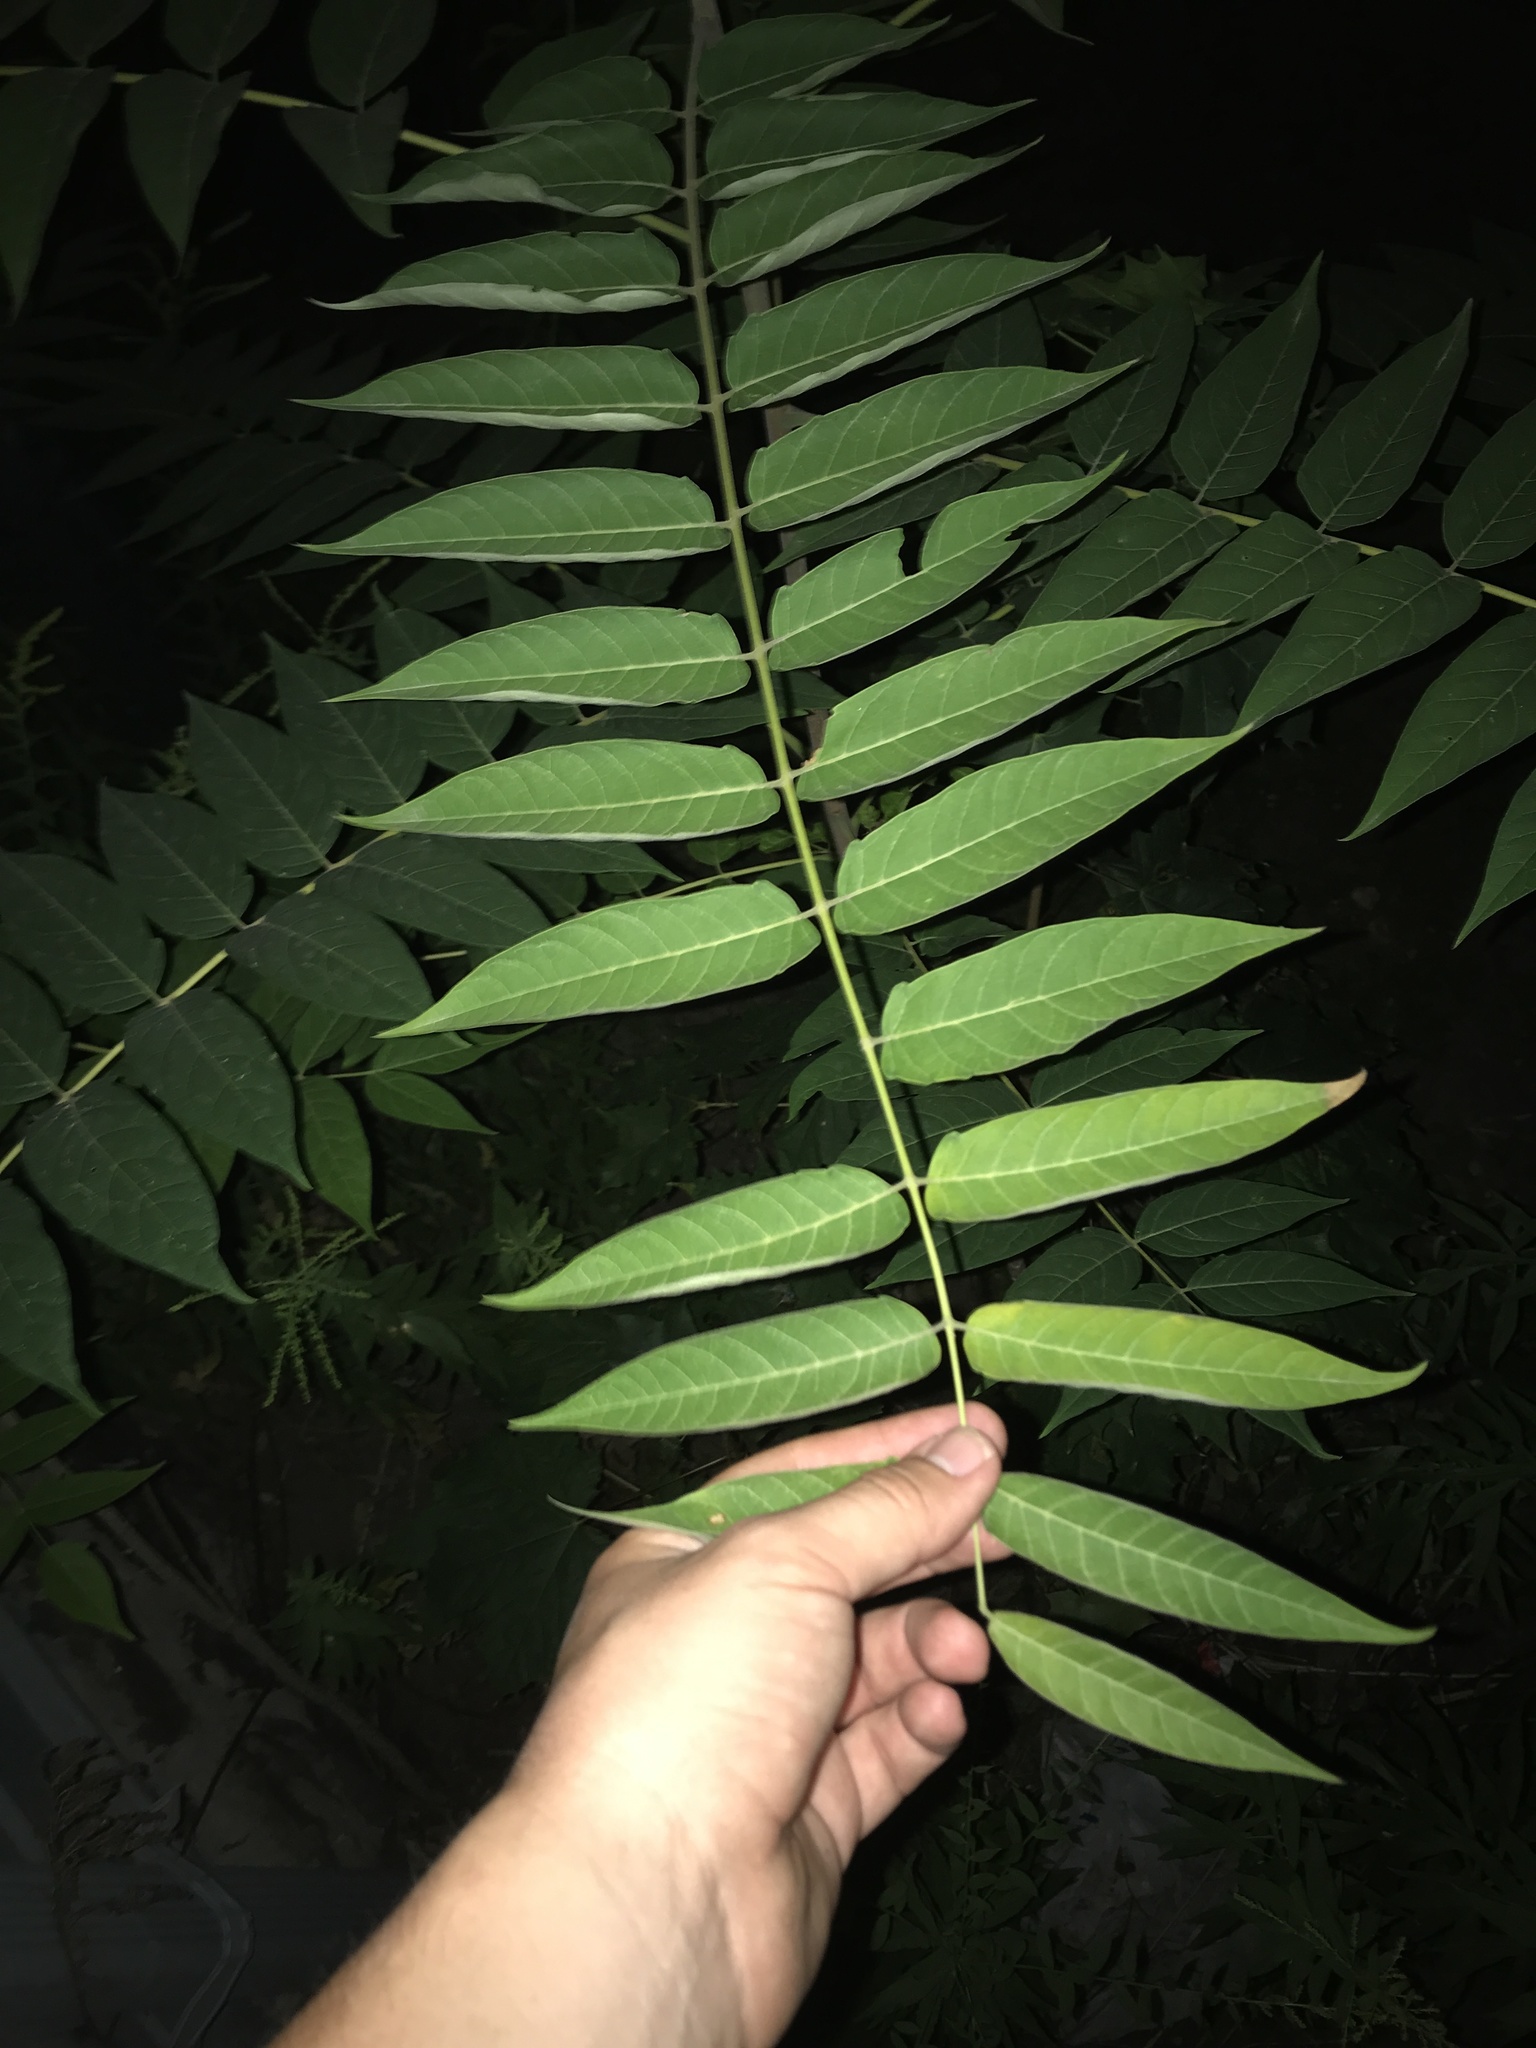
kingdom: Plantae
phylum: Tracheophyta
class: Magnoliopsida
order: Sapindales
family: Simaroubaceae
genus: Ailanthus
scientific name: Ailanthus altissima
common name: Tree-of-heaven
